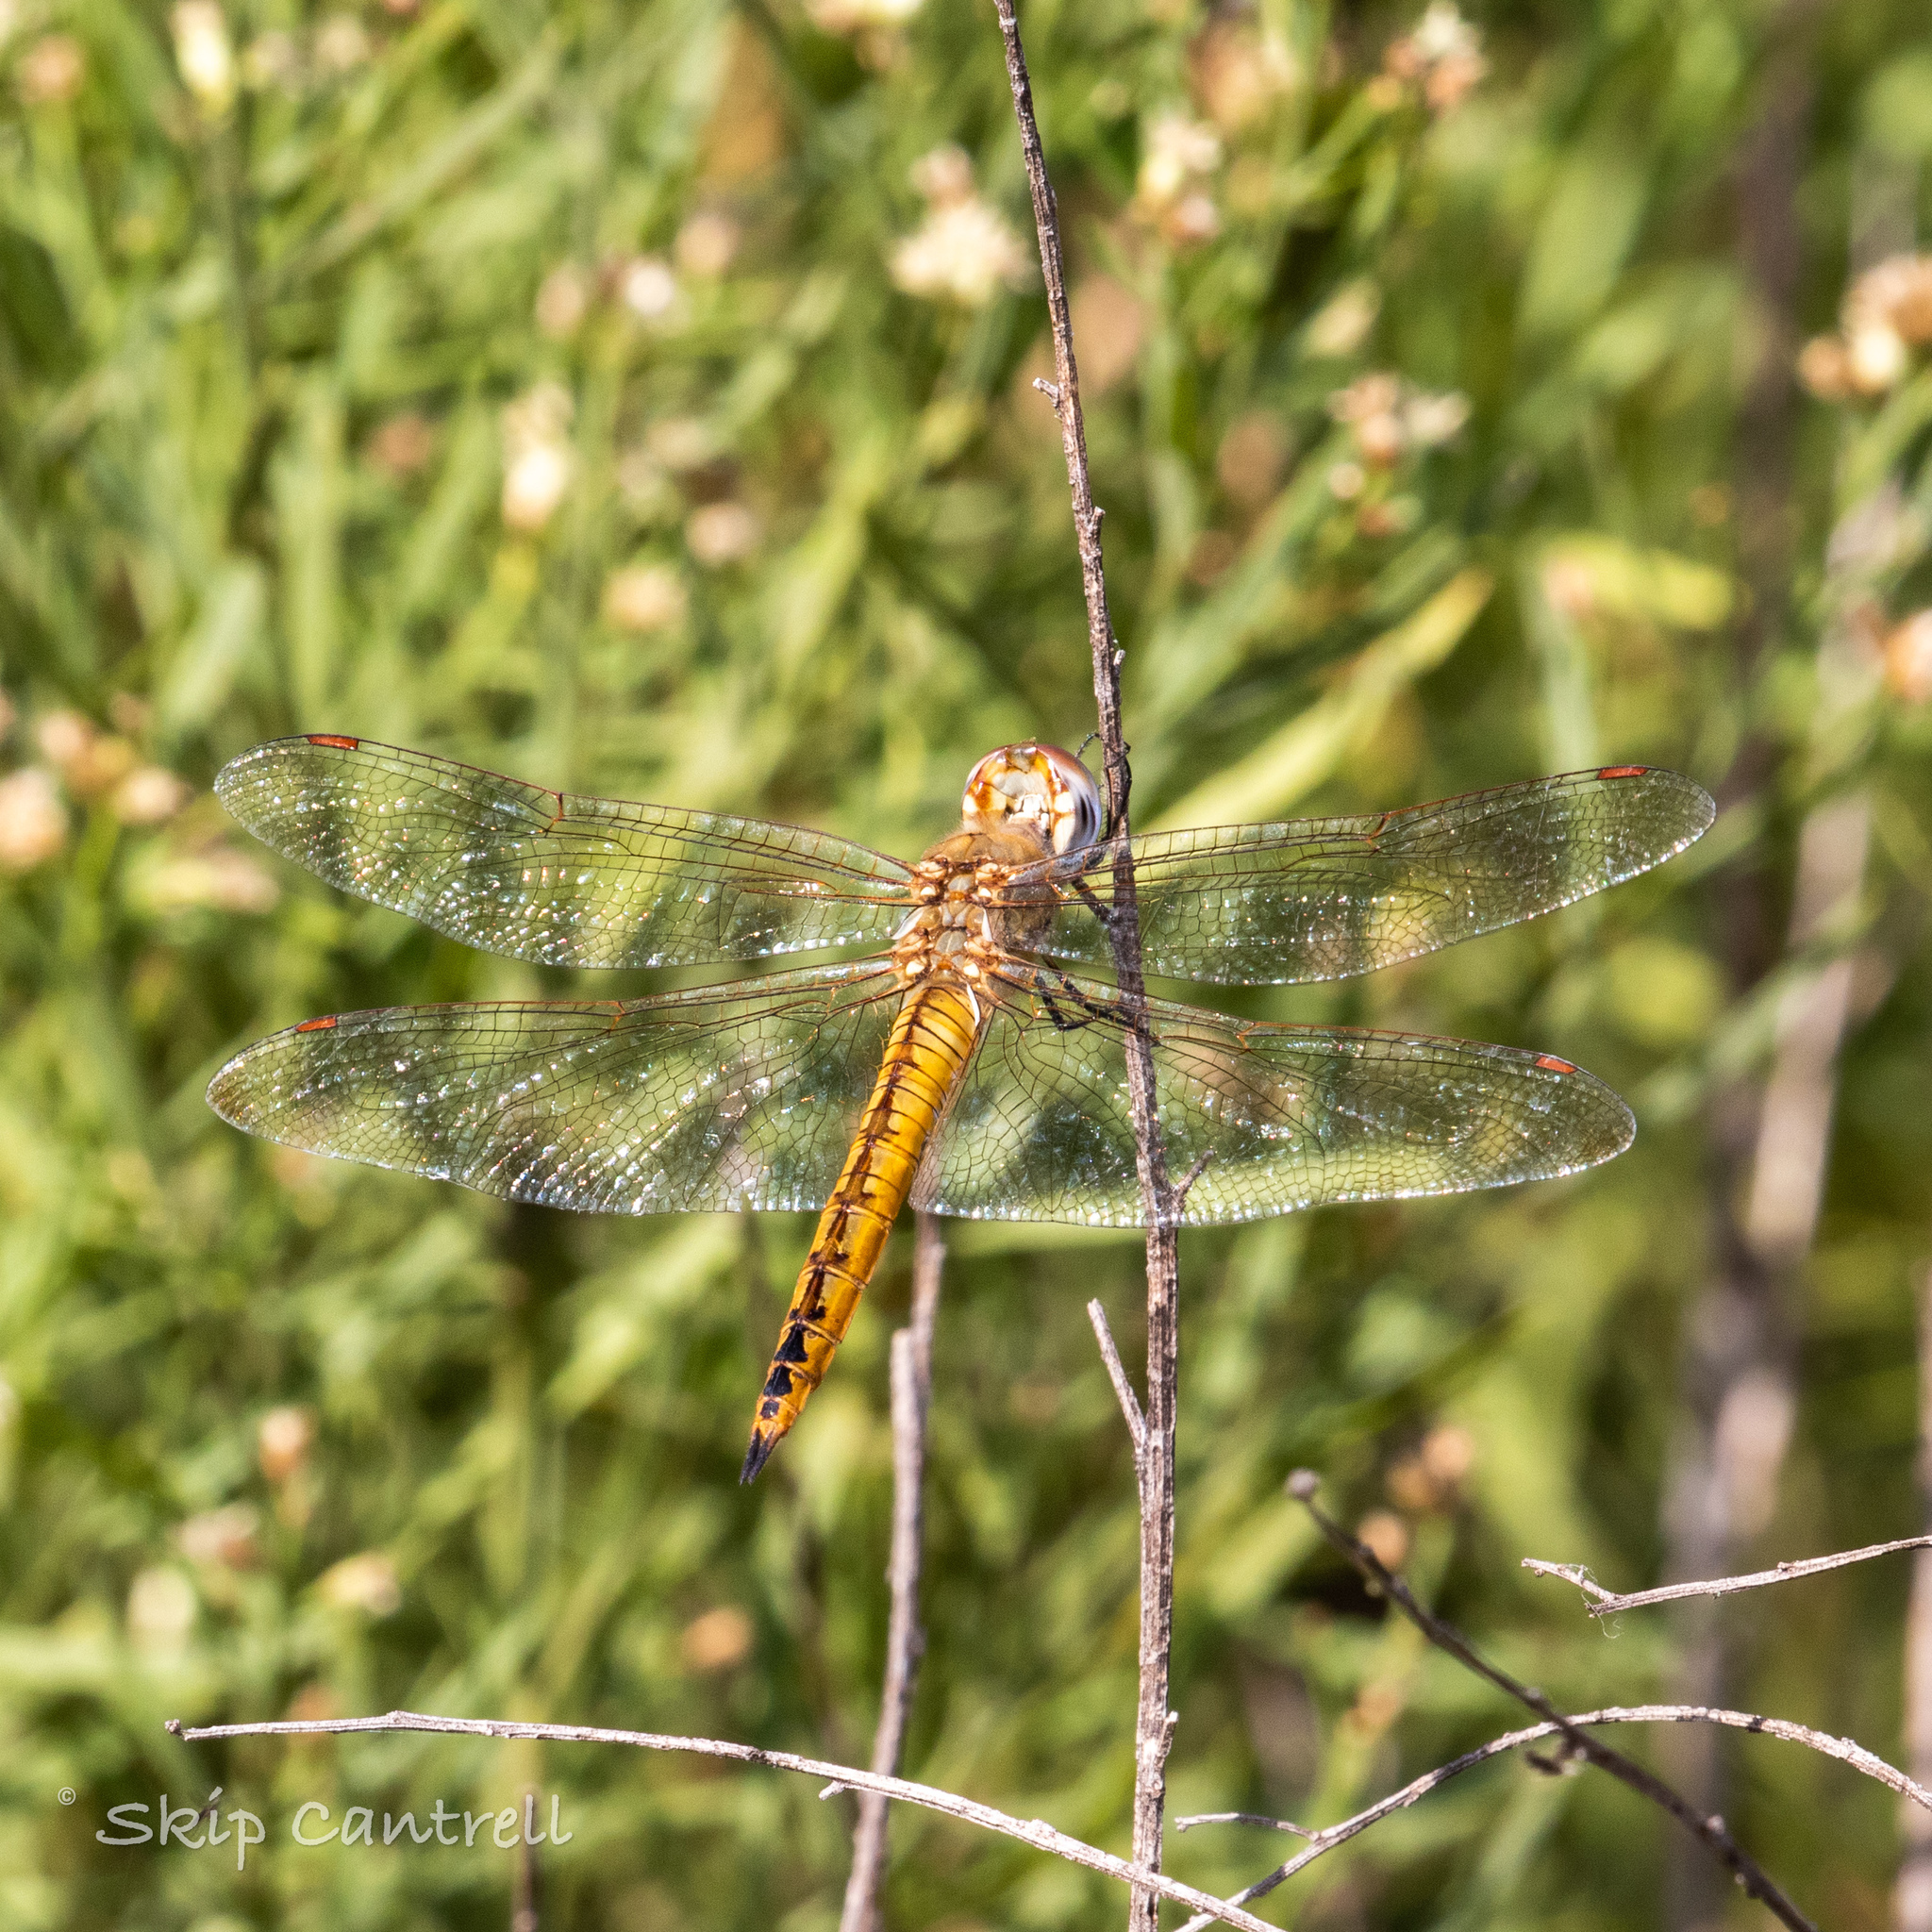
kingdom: Animalia
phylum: Arthropoda
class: Insecta
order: Odonata
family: Libellulidae
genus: Pantala
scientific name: Pantala flavescens
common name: Wandering glider
